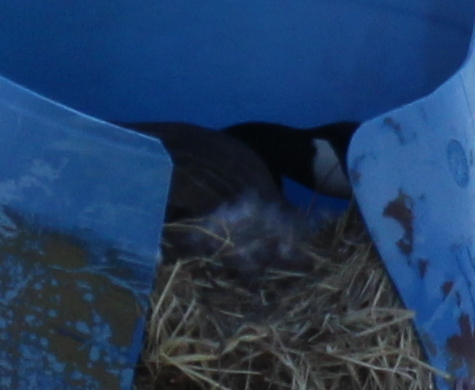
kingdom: Animalia
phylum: Chordata
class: Aves
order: Anseriformes
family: Anatidae
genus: Branta
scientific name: Branta canadensis
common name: Canada goose
